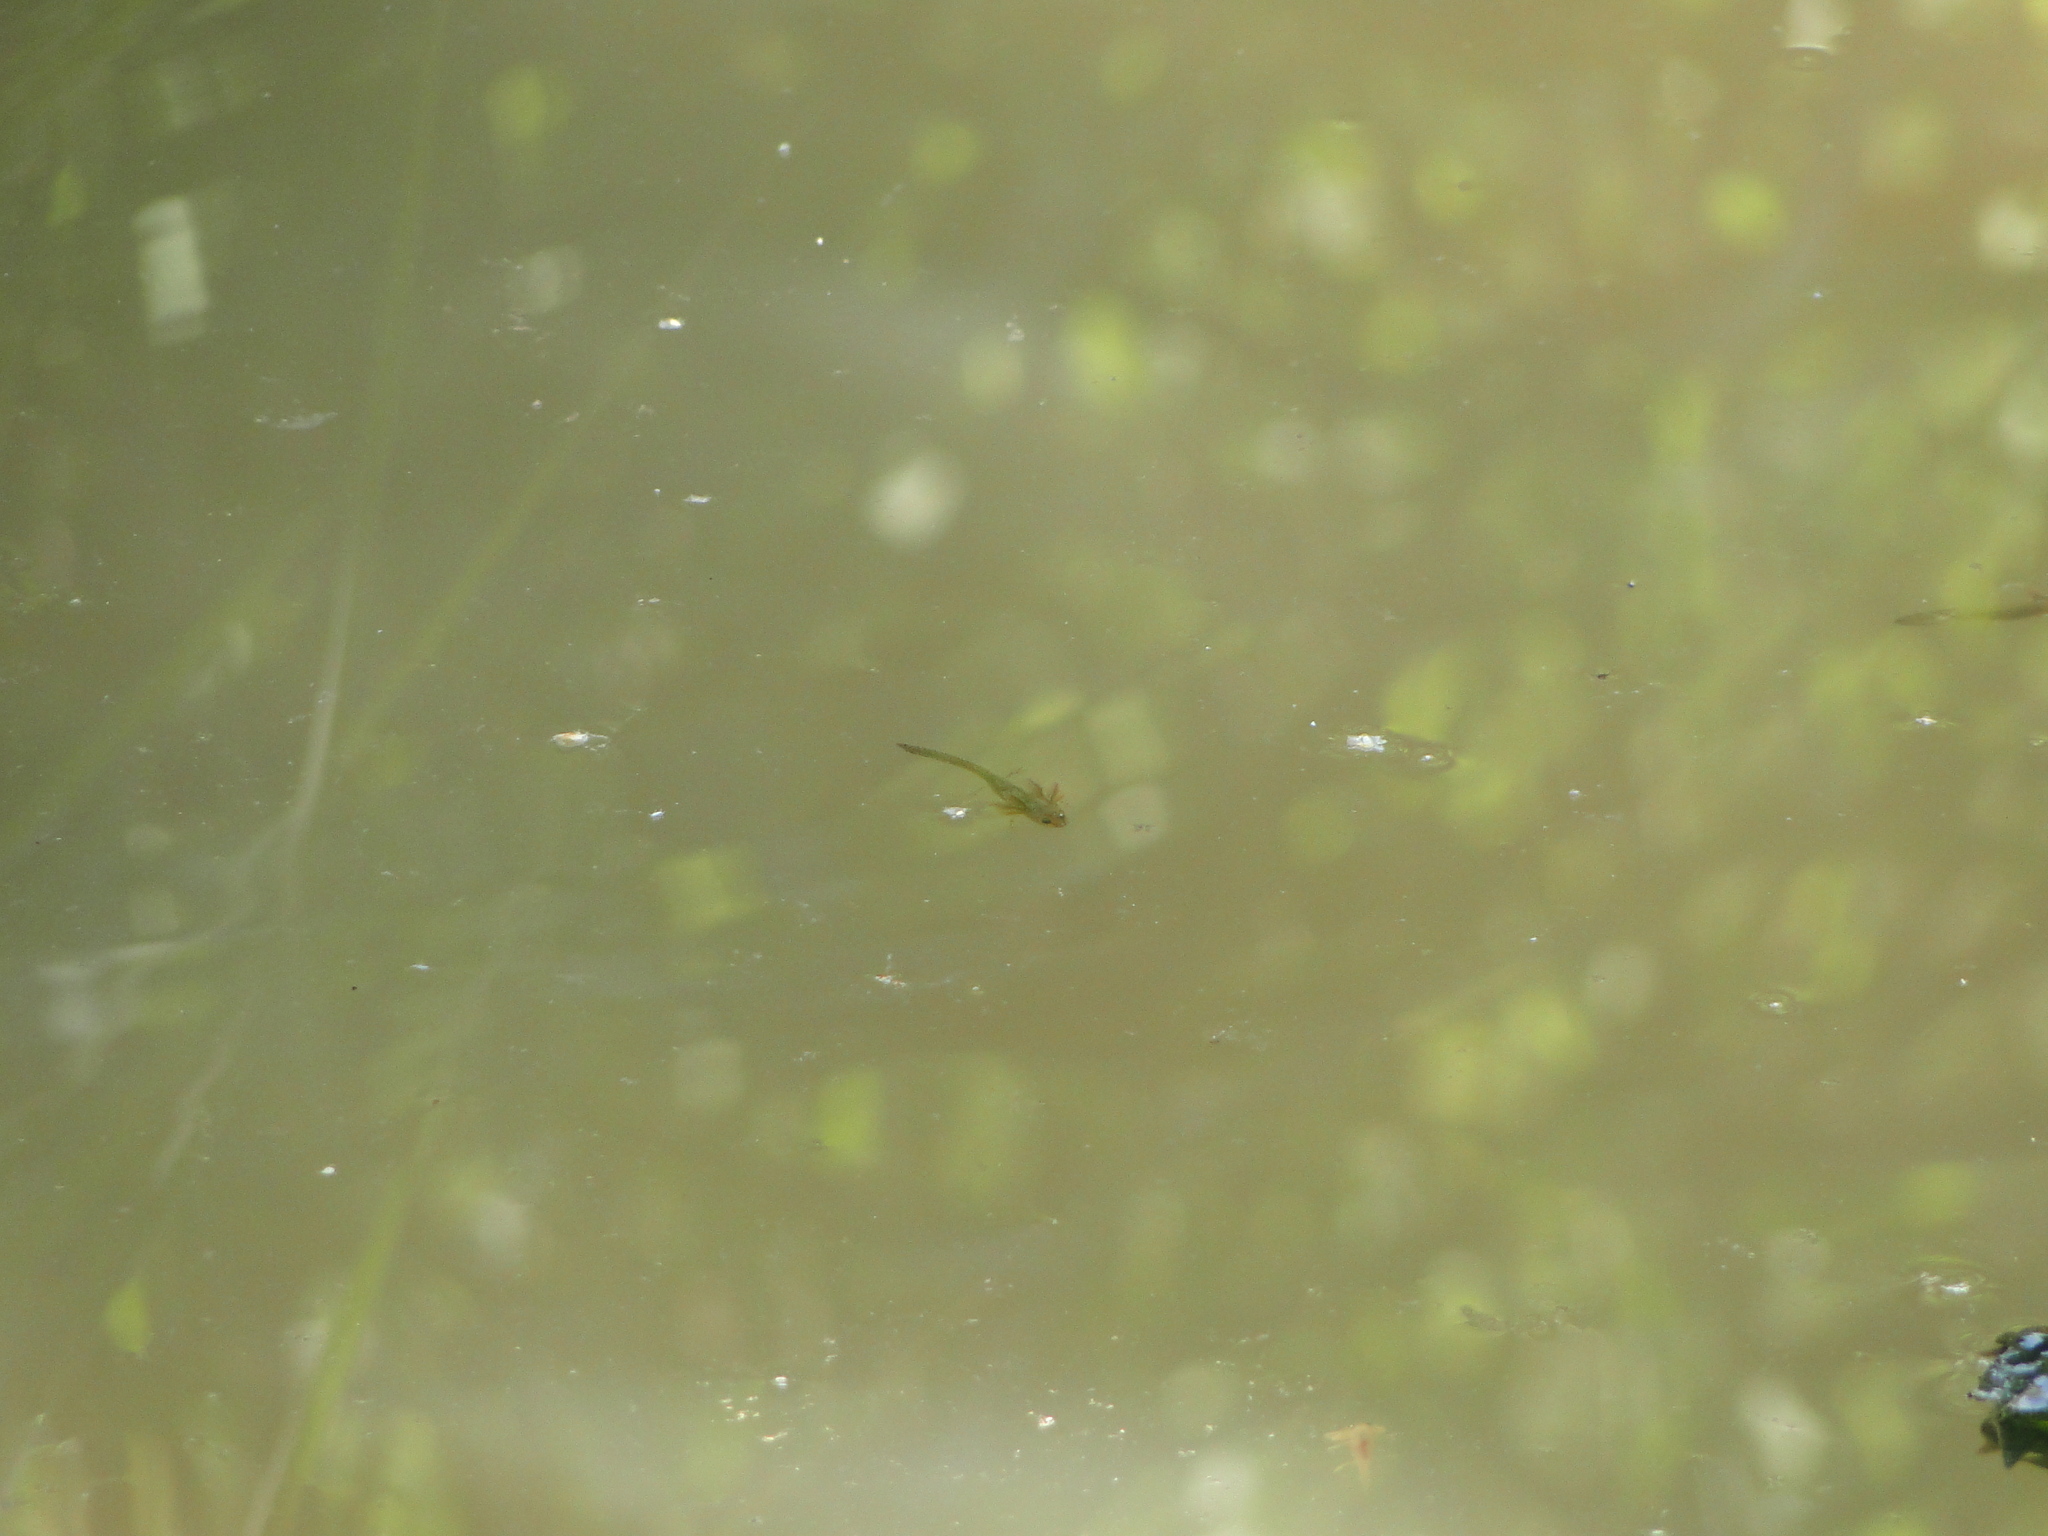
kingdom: Animalia
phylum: Chordata
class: Amphibia
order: Caudata
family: Salamandridae
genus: Ichthyosaura
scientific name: Ichthyosaura alpestris
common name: Alpine newt
